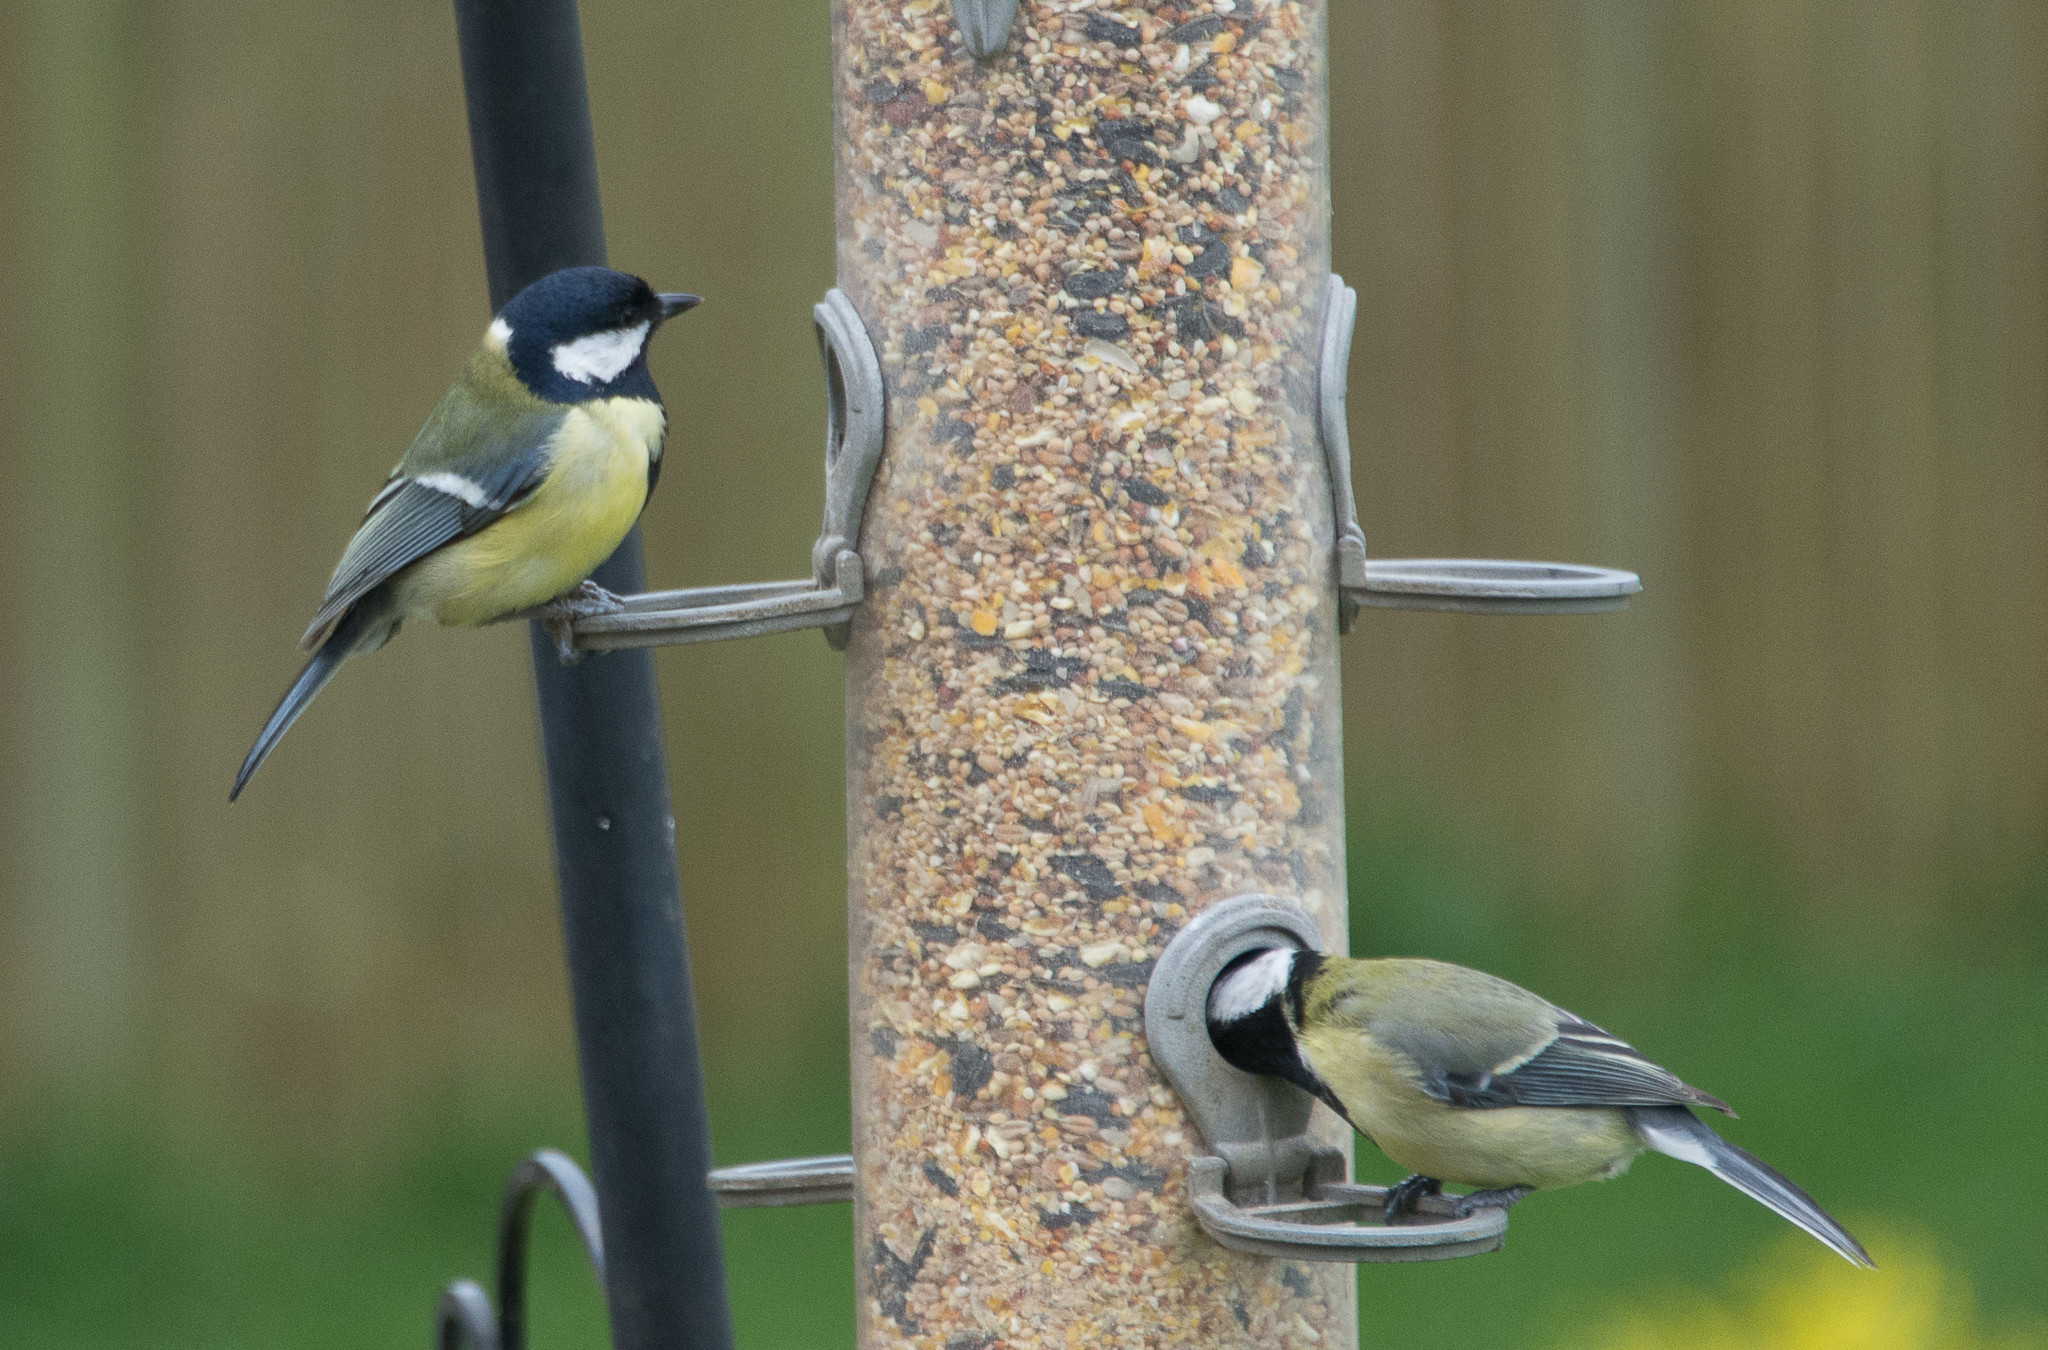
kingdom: Animalia
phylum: Chordata
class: Aves
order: Passeriformes
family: Paridae
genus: Parus
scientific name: Parus major
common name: Great tit
